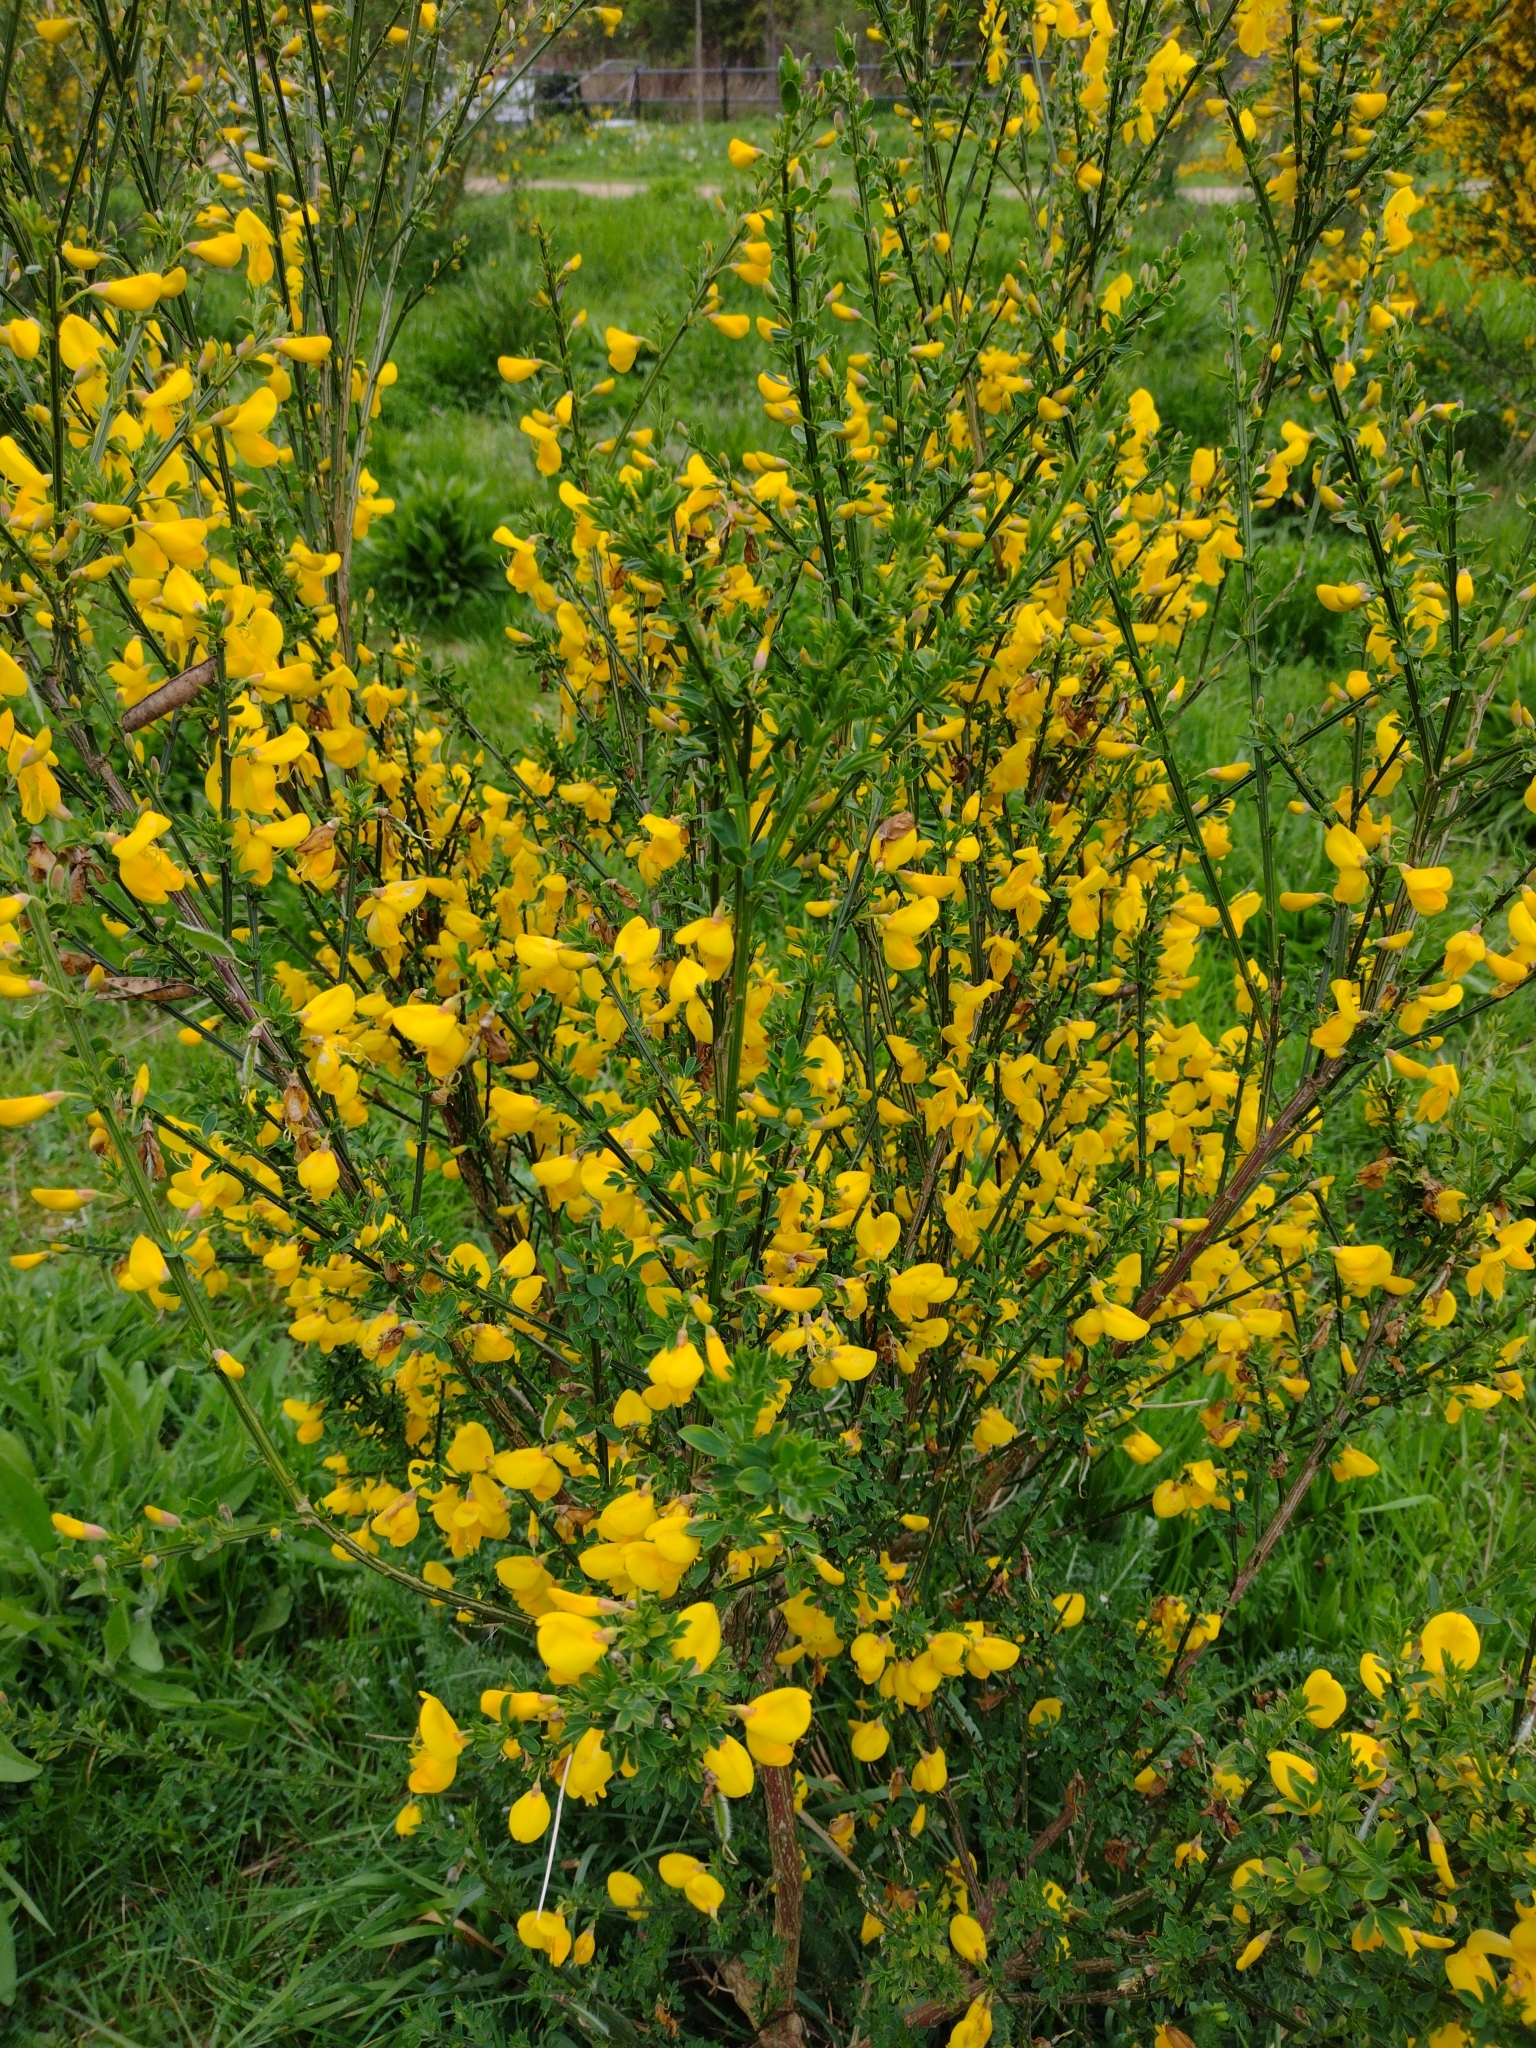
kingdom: Plantae
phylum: Tracheophyta
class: Magnoliopsida
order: Fabales
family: Fabaceae
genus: Cytisus
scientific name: Cytisus scoparius
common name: Scotch broom
